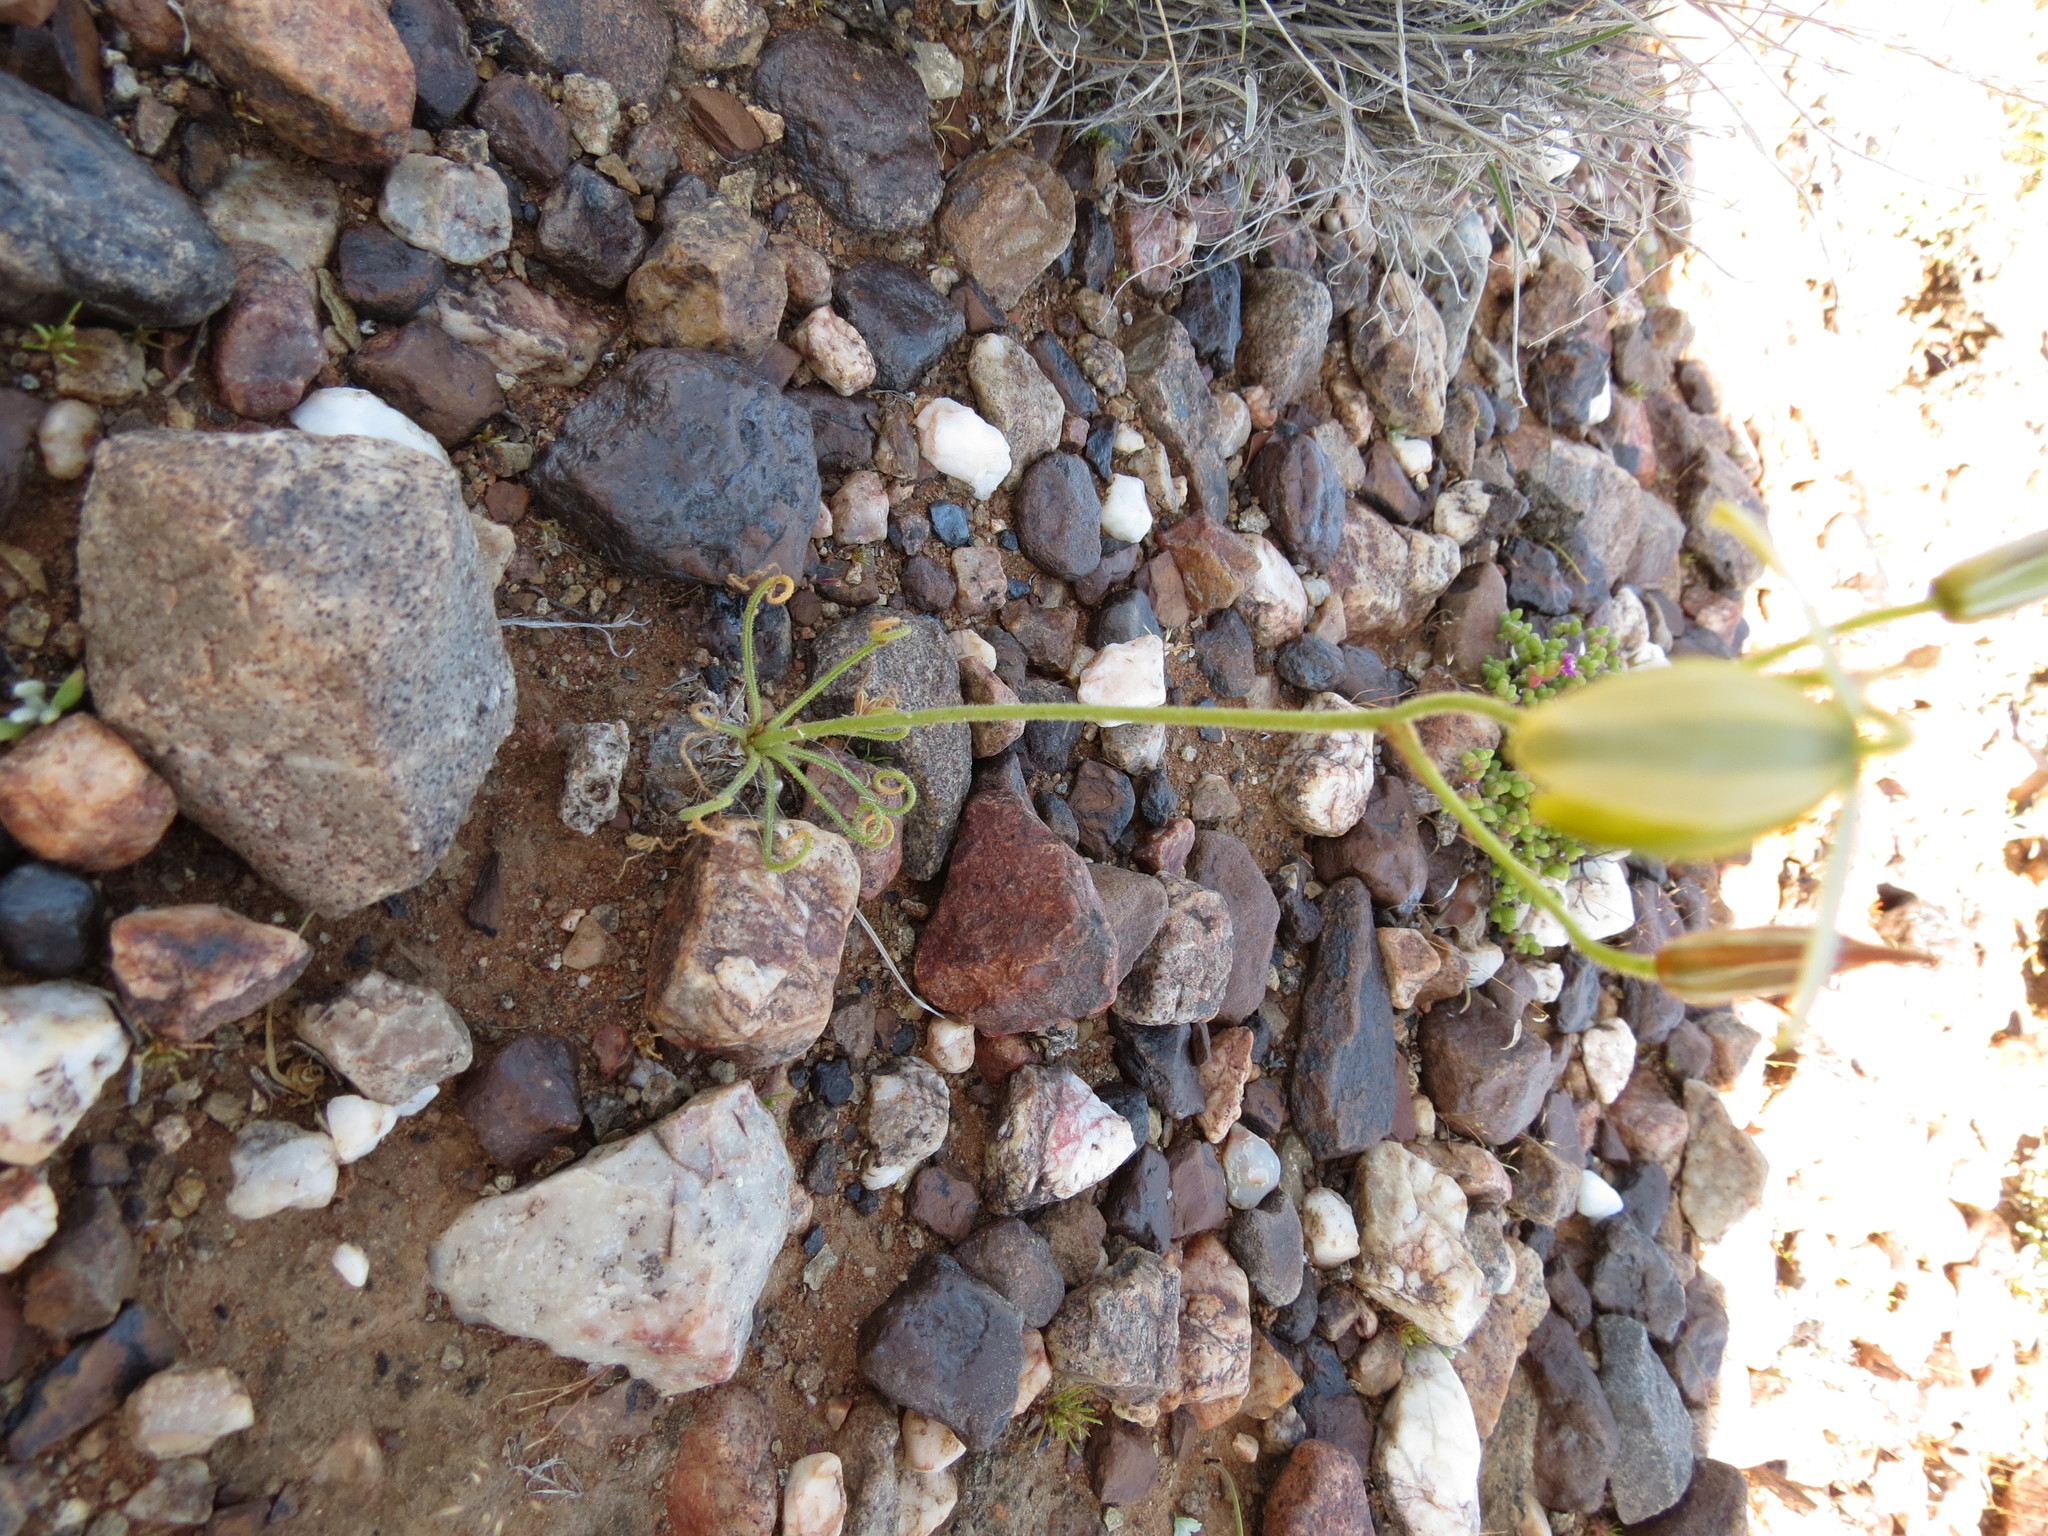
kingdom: Plantae
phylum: Tracheophyta
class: Liliopsida
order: Asparagales
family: Asparagaceae
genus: Albuca
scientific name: Albuca namaquensis
